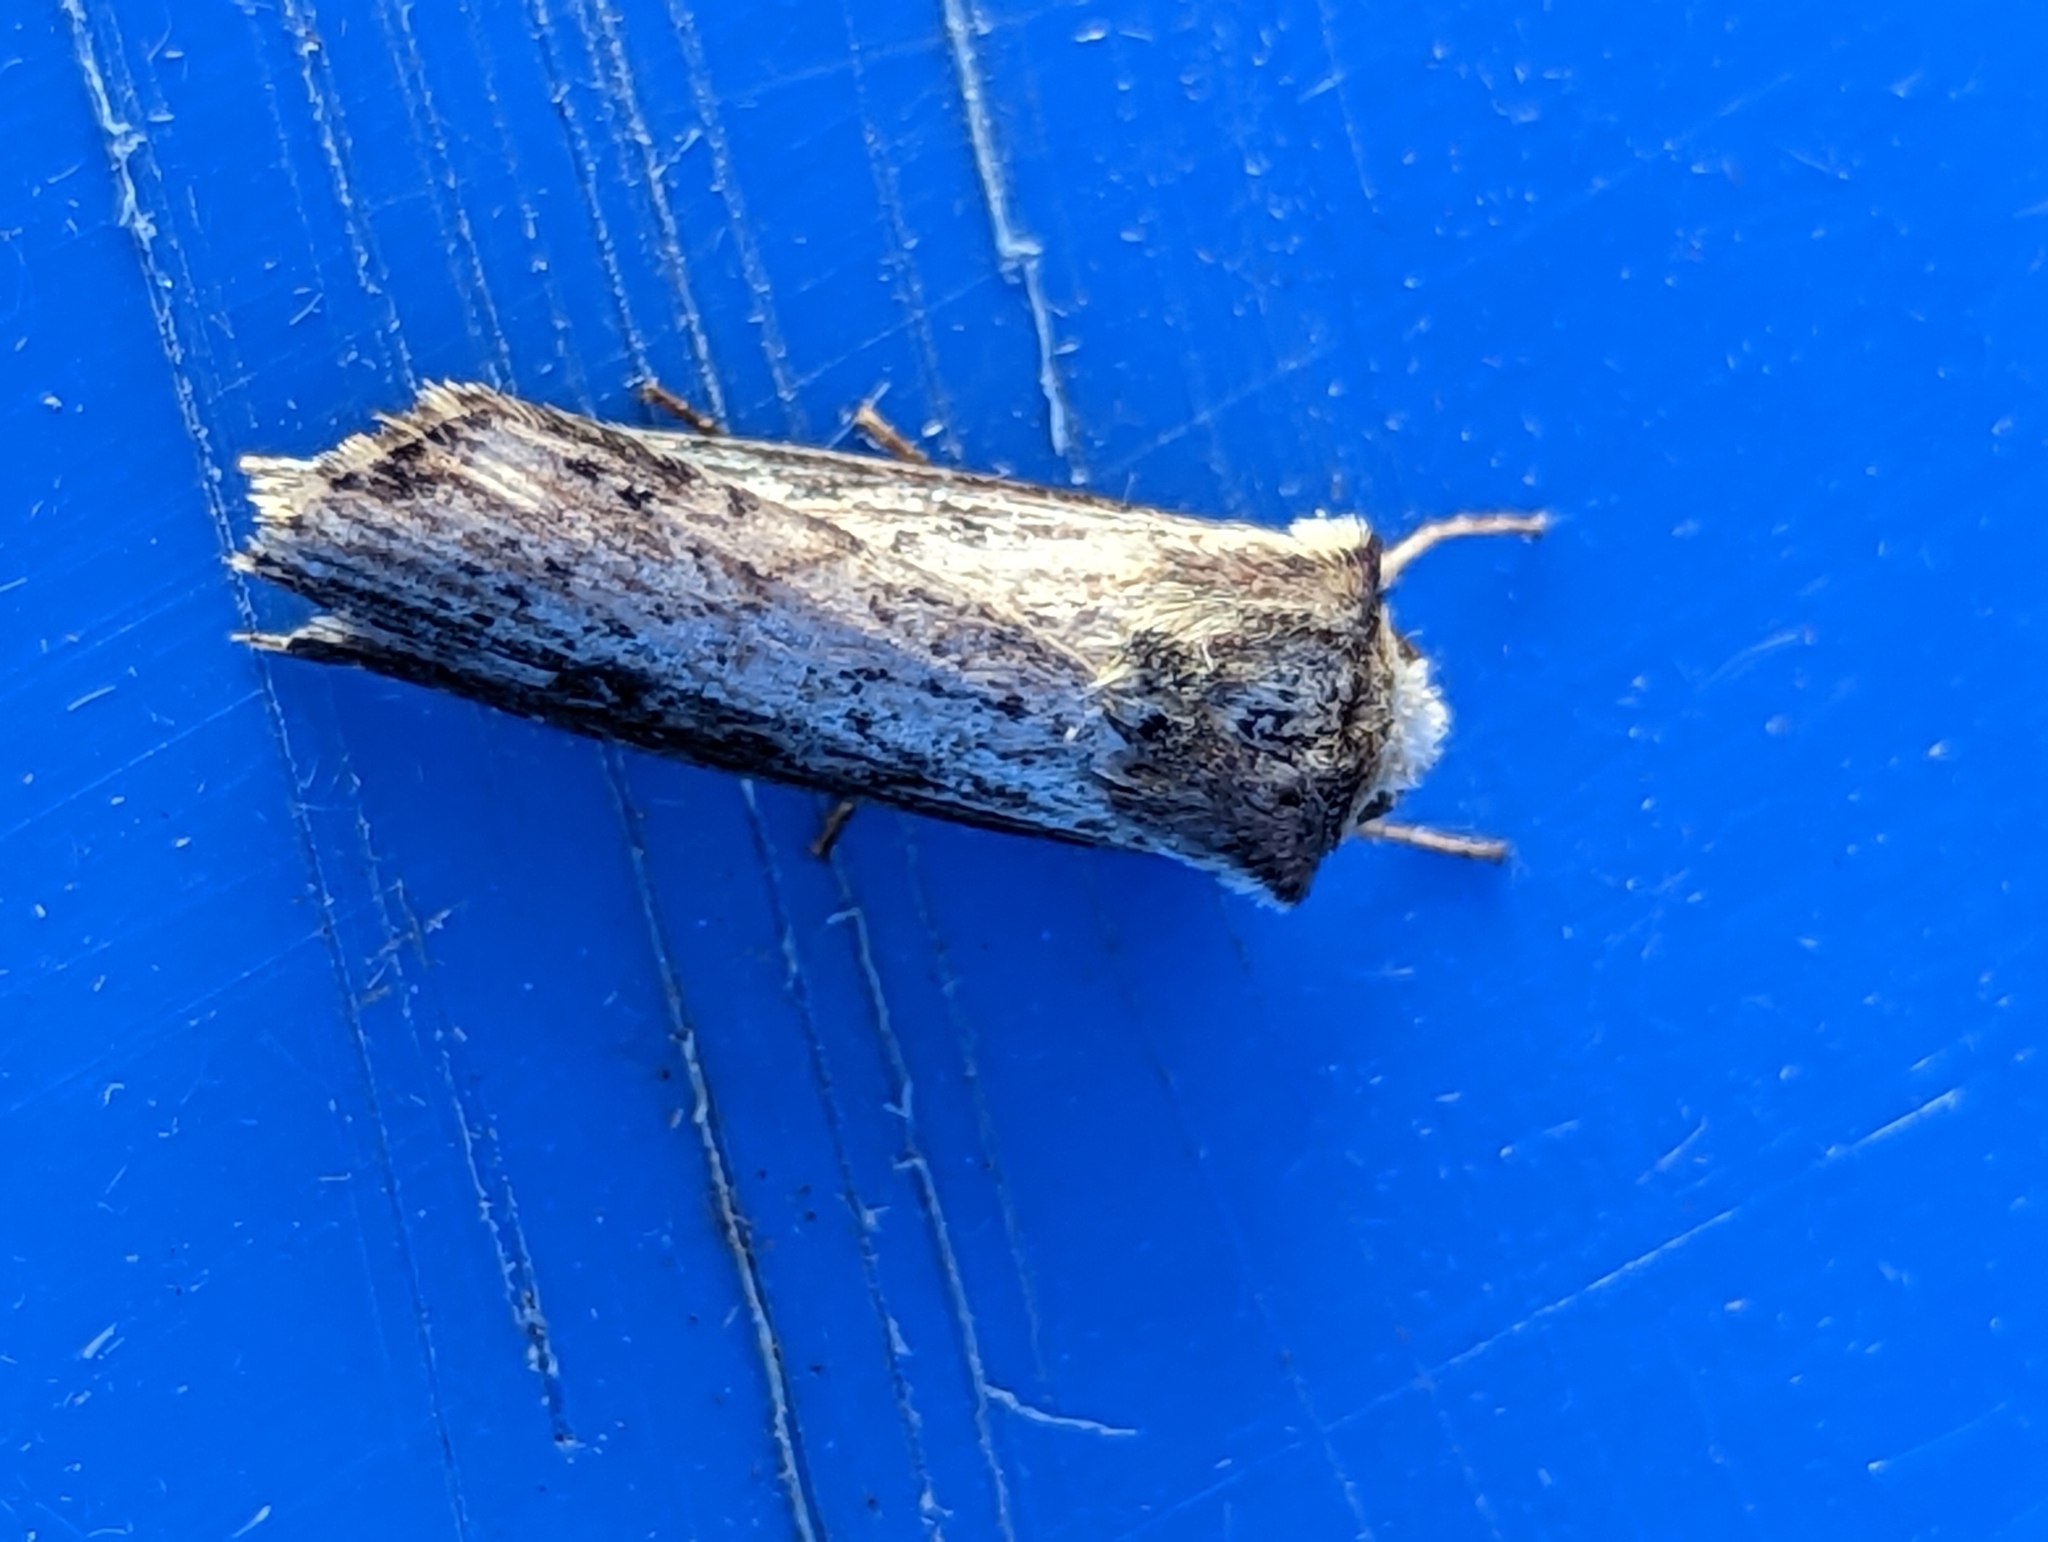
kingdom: Animalia
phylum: Arthropoda
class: Insecta
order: Lepidoptera
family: Noctuidae
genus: Axylia
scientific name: Axylia putris
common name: Flame
